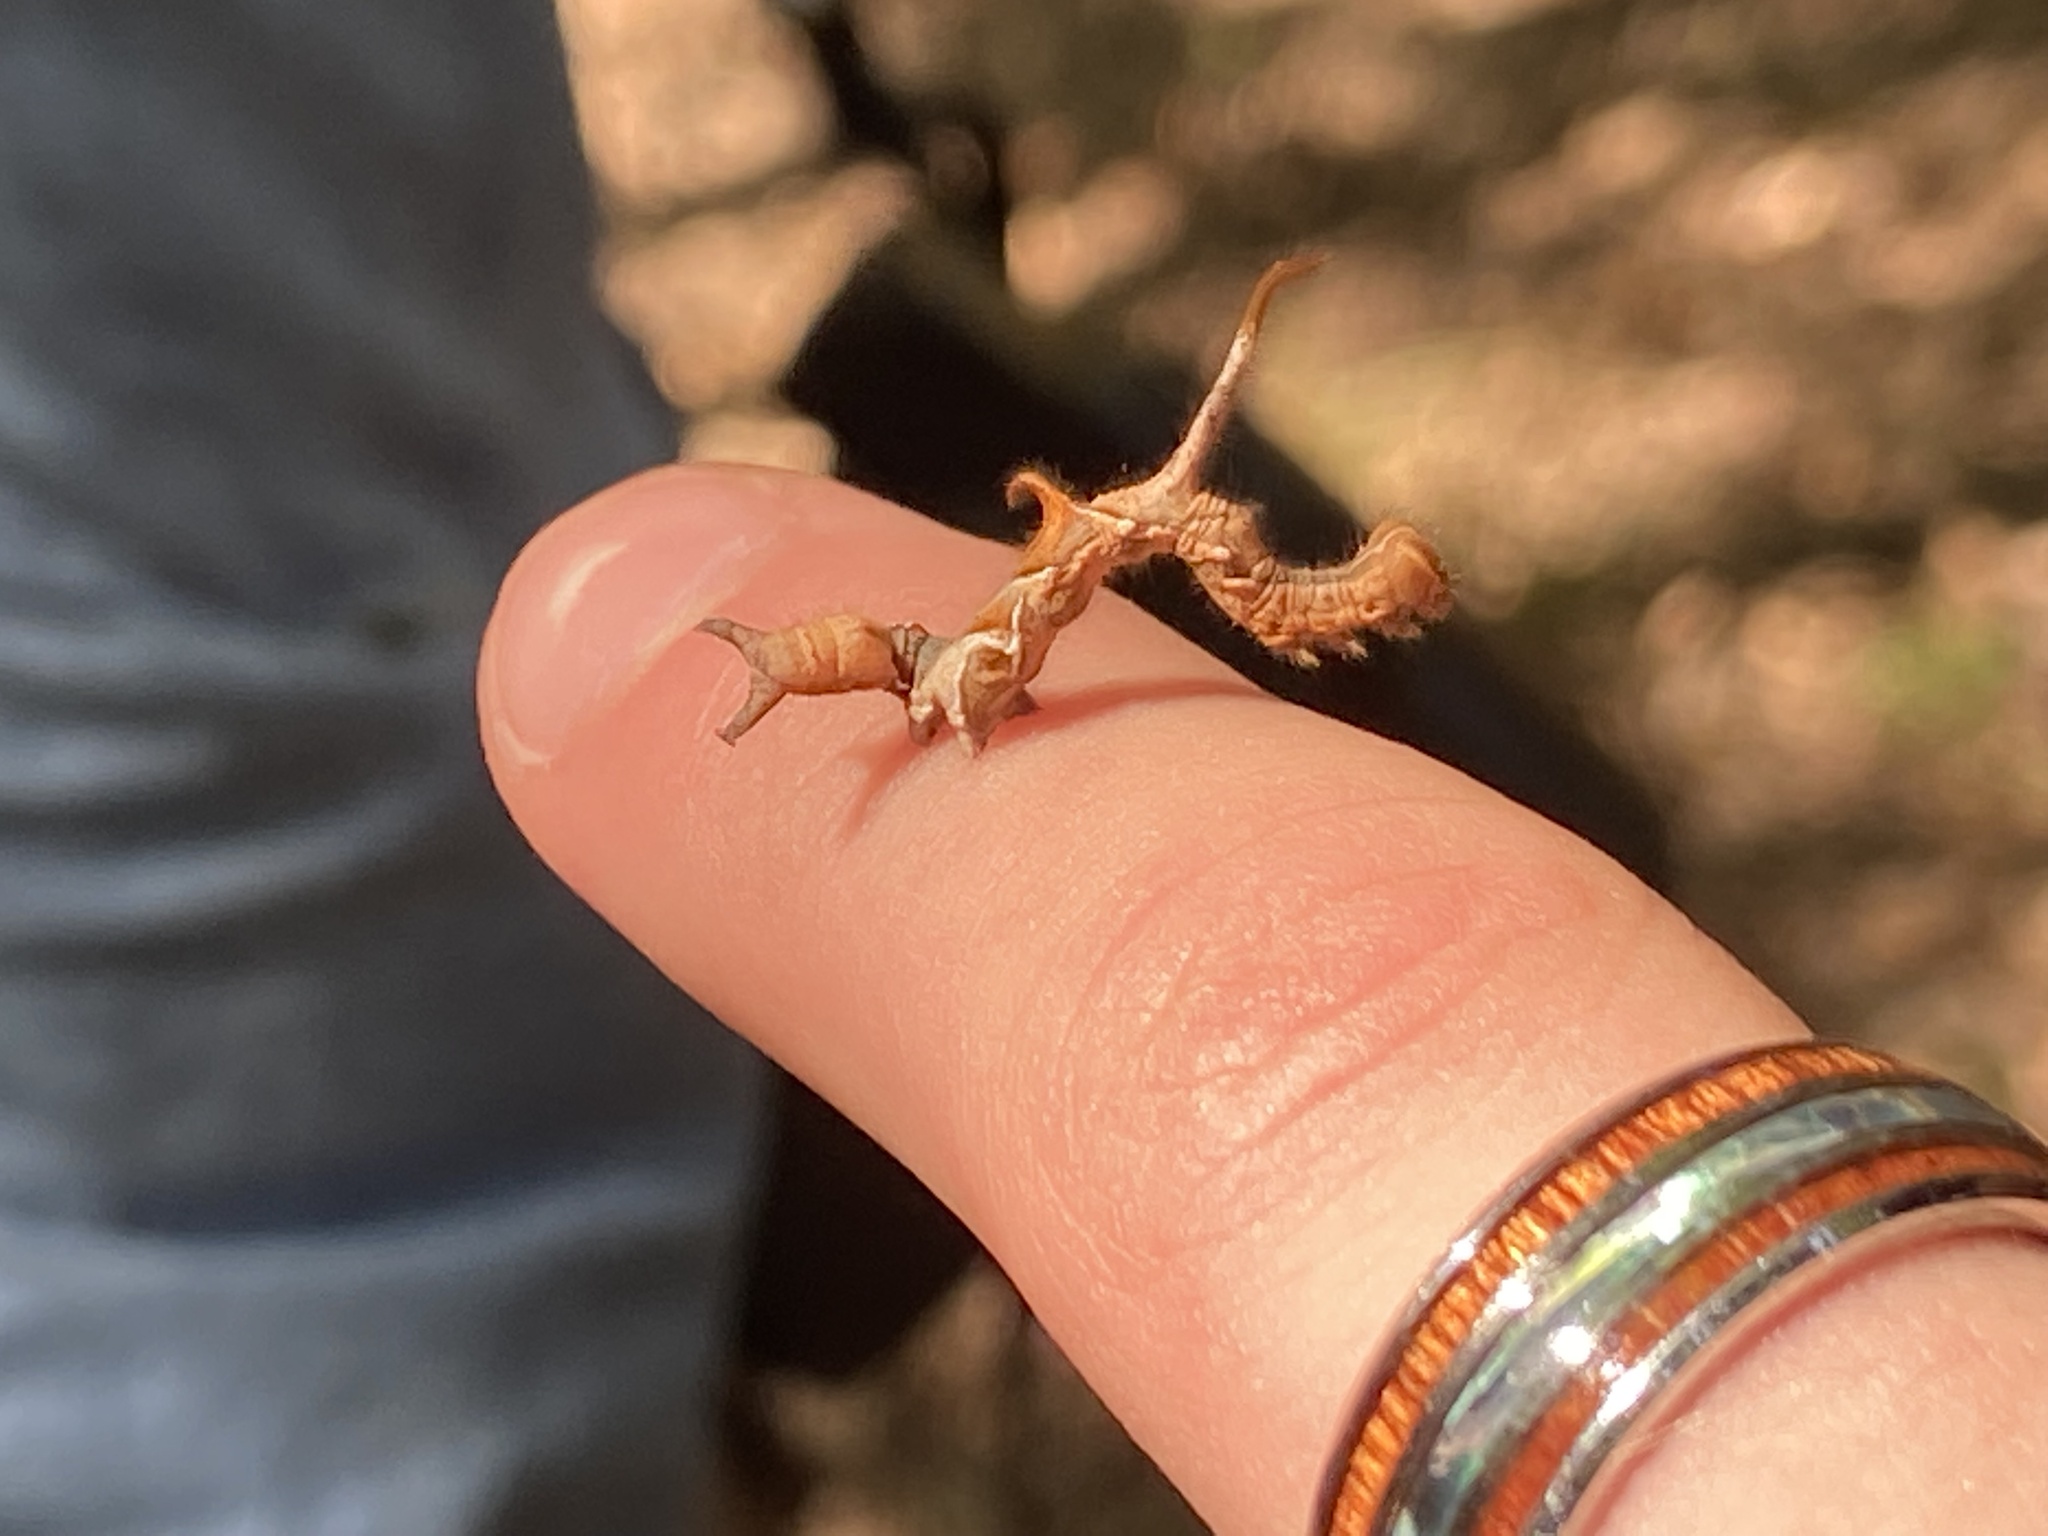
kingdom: Animalia
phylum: Arthropoda
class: Insecta
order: Lepidoptera
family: Erebidae
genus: Phyprosopus
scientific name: Phyprosopus callitrichoides
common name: Curved-lined owlet
